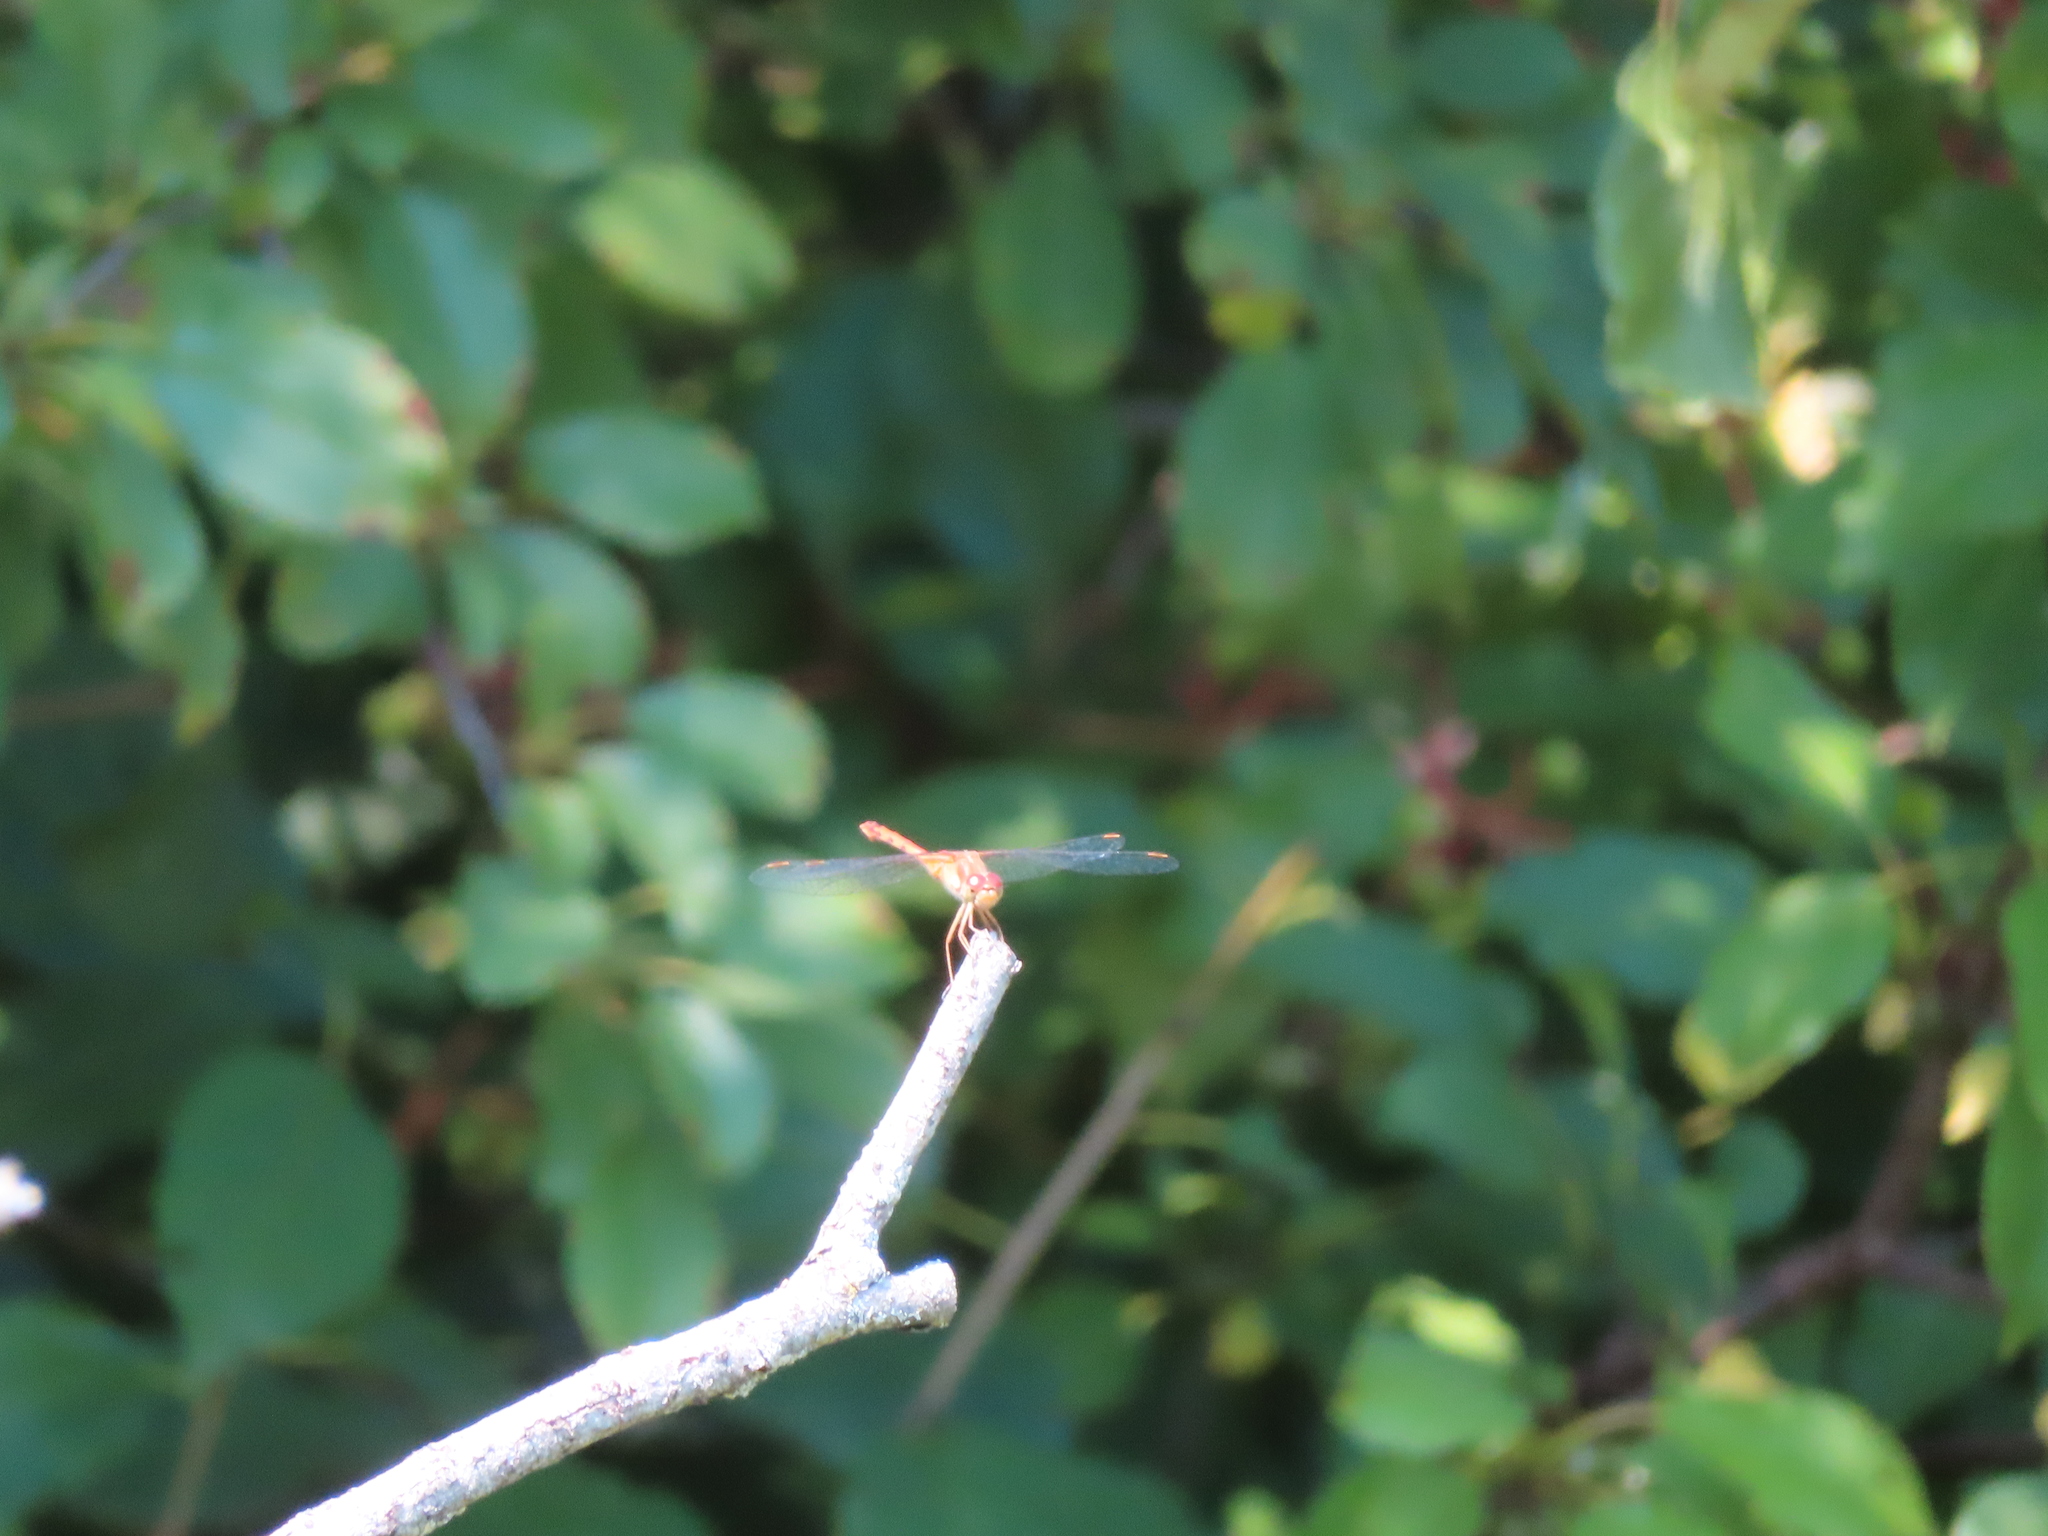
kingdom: Animalia
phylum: Arthropoda
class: Insecta
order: Odonata
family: Libellulidae
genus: Sympetrum
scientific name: Sympetrum vicinum
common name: Autumn meadowhawk
